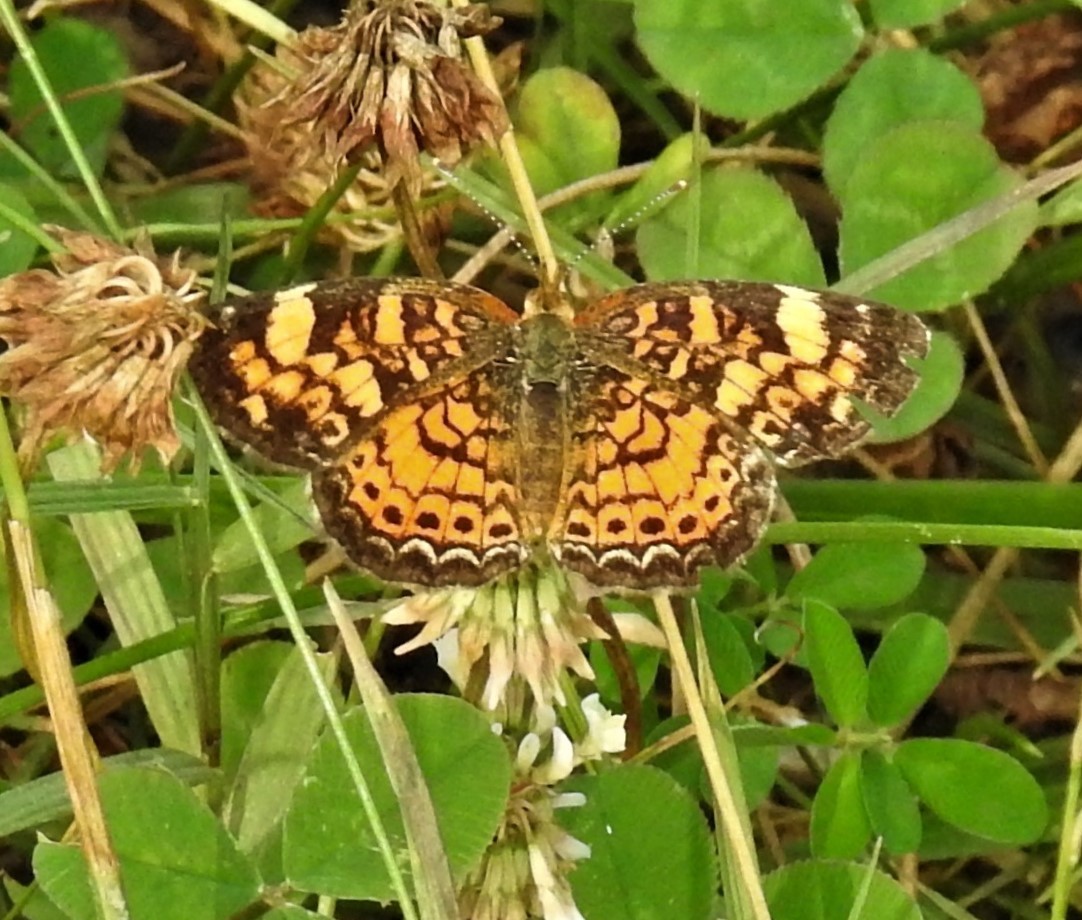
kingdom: Animalia
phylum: Arthropoda
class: Insecta
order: Lepidoptera
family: Nymphalidae
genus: Phyciodes
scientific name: Phyciodes tharos
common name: Pearl crescent
